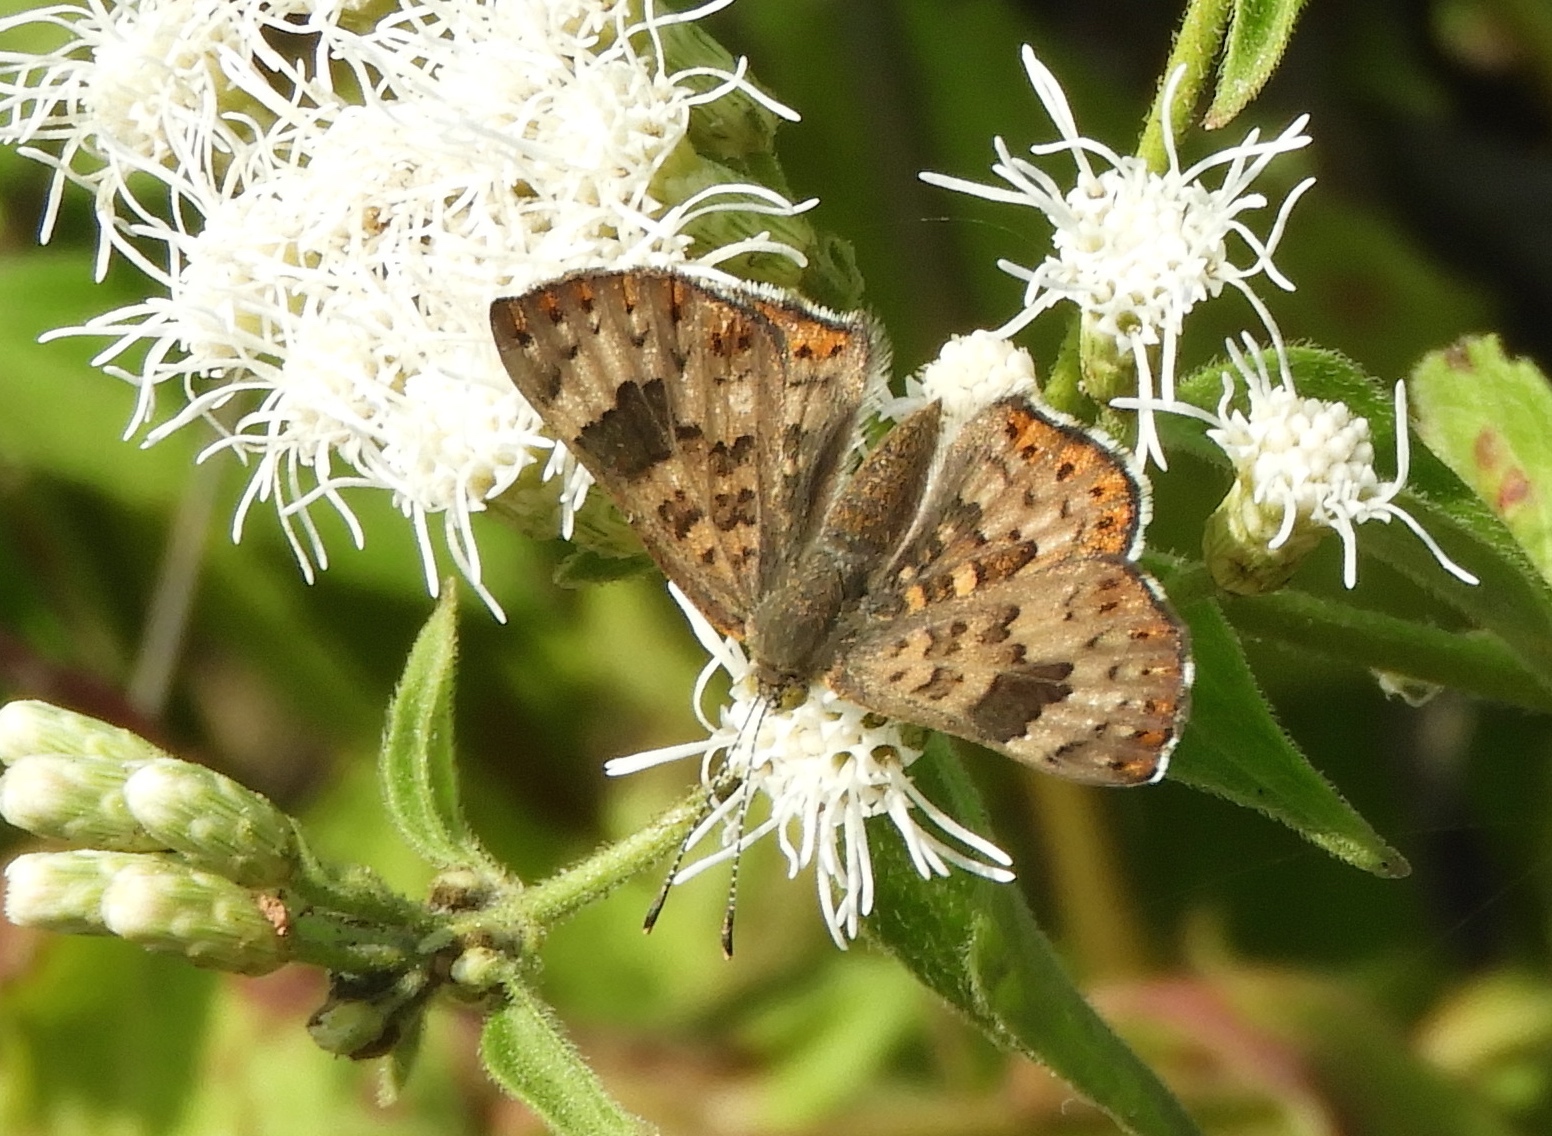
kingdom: Animalia
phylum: Arthropoda
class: Insecta
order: Lepidoptera
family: Riodinidae
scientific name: Riodinidae
